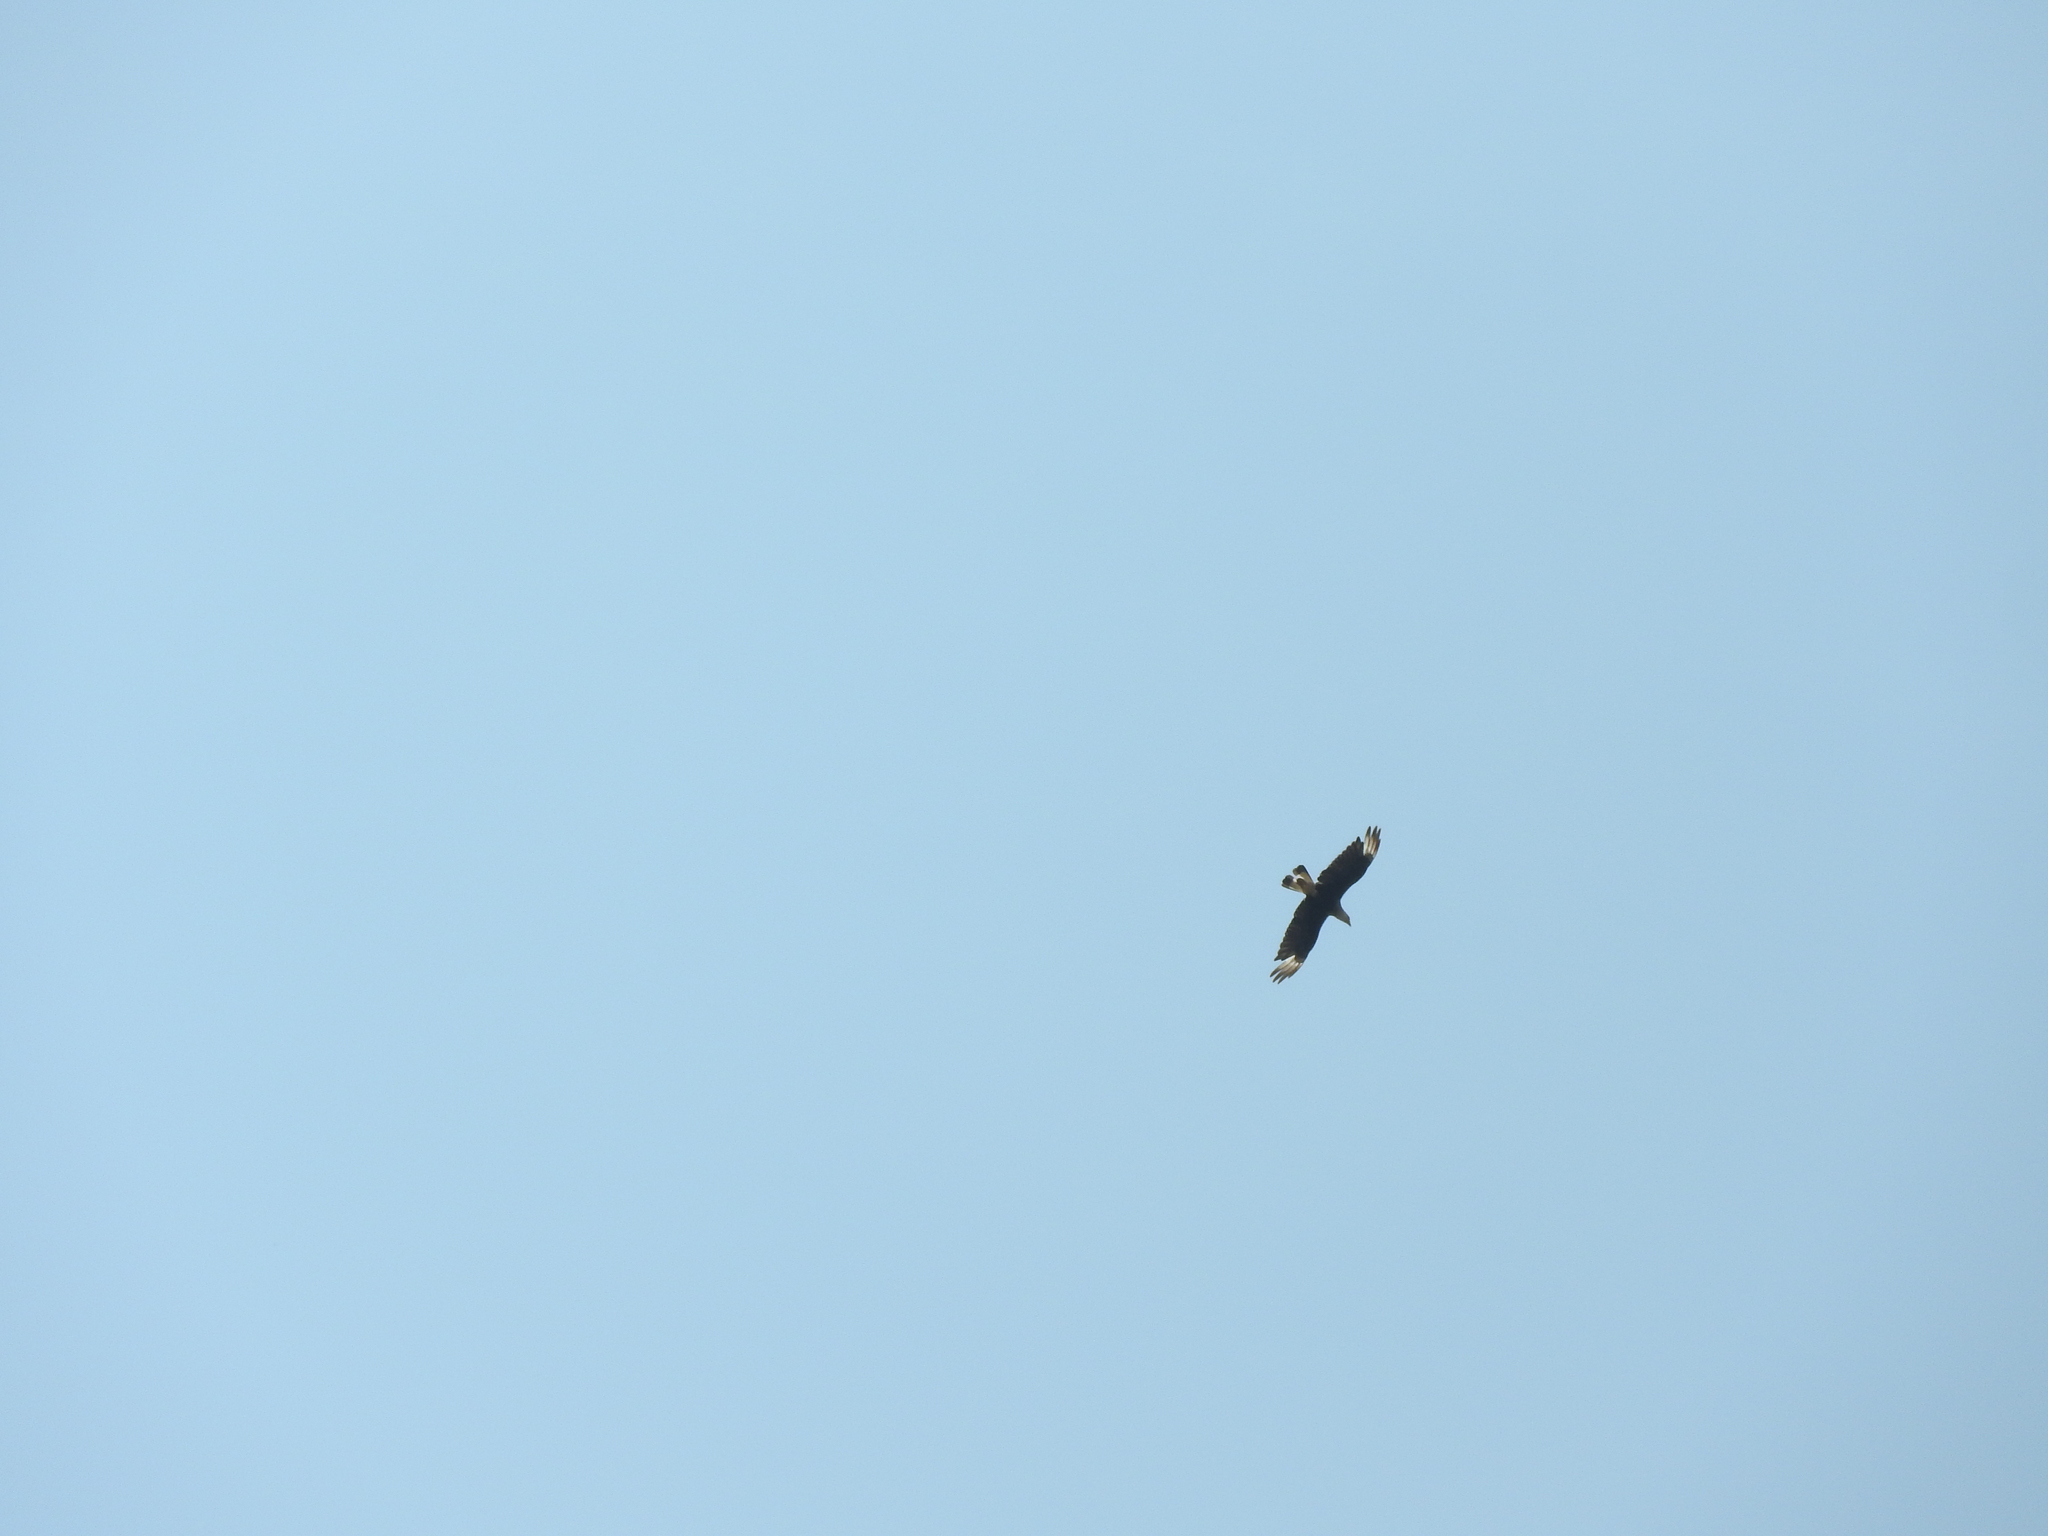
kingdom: Animalia
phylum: Chordata
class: Aves
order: Falconiformes
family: Falconidae
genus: Caracara
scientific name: Caracara plancus
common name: Southern caracara
